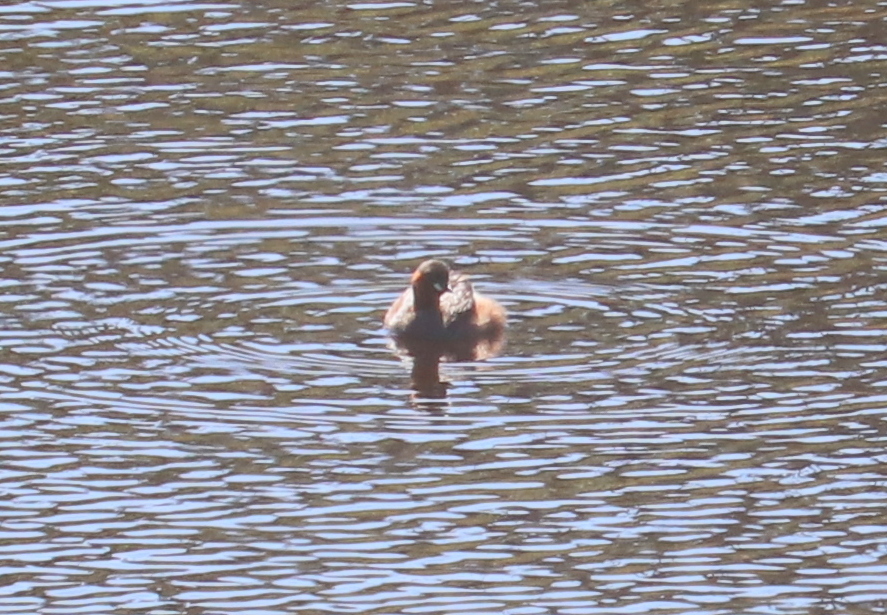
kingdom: Animalia
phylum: Chordata
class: Aves
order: Podicipediformes
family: Podicipedidae
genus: Tachybaptus
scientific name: Tachybaptus ruficollis
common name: Little grebe
